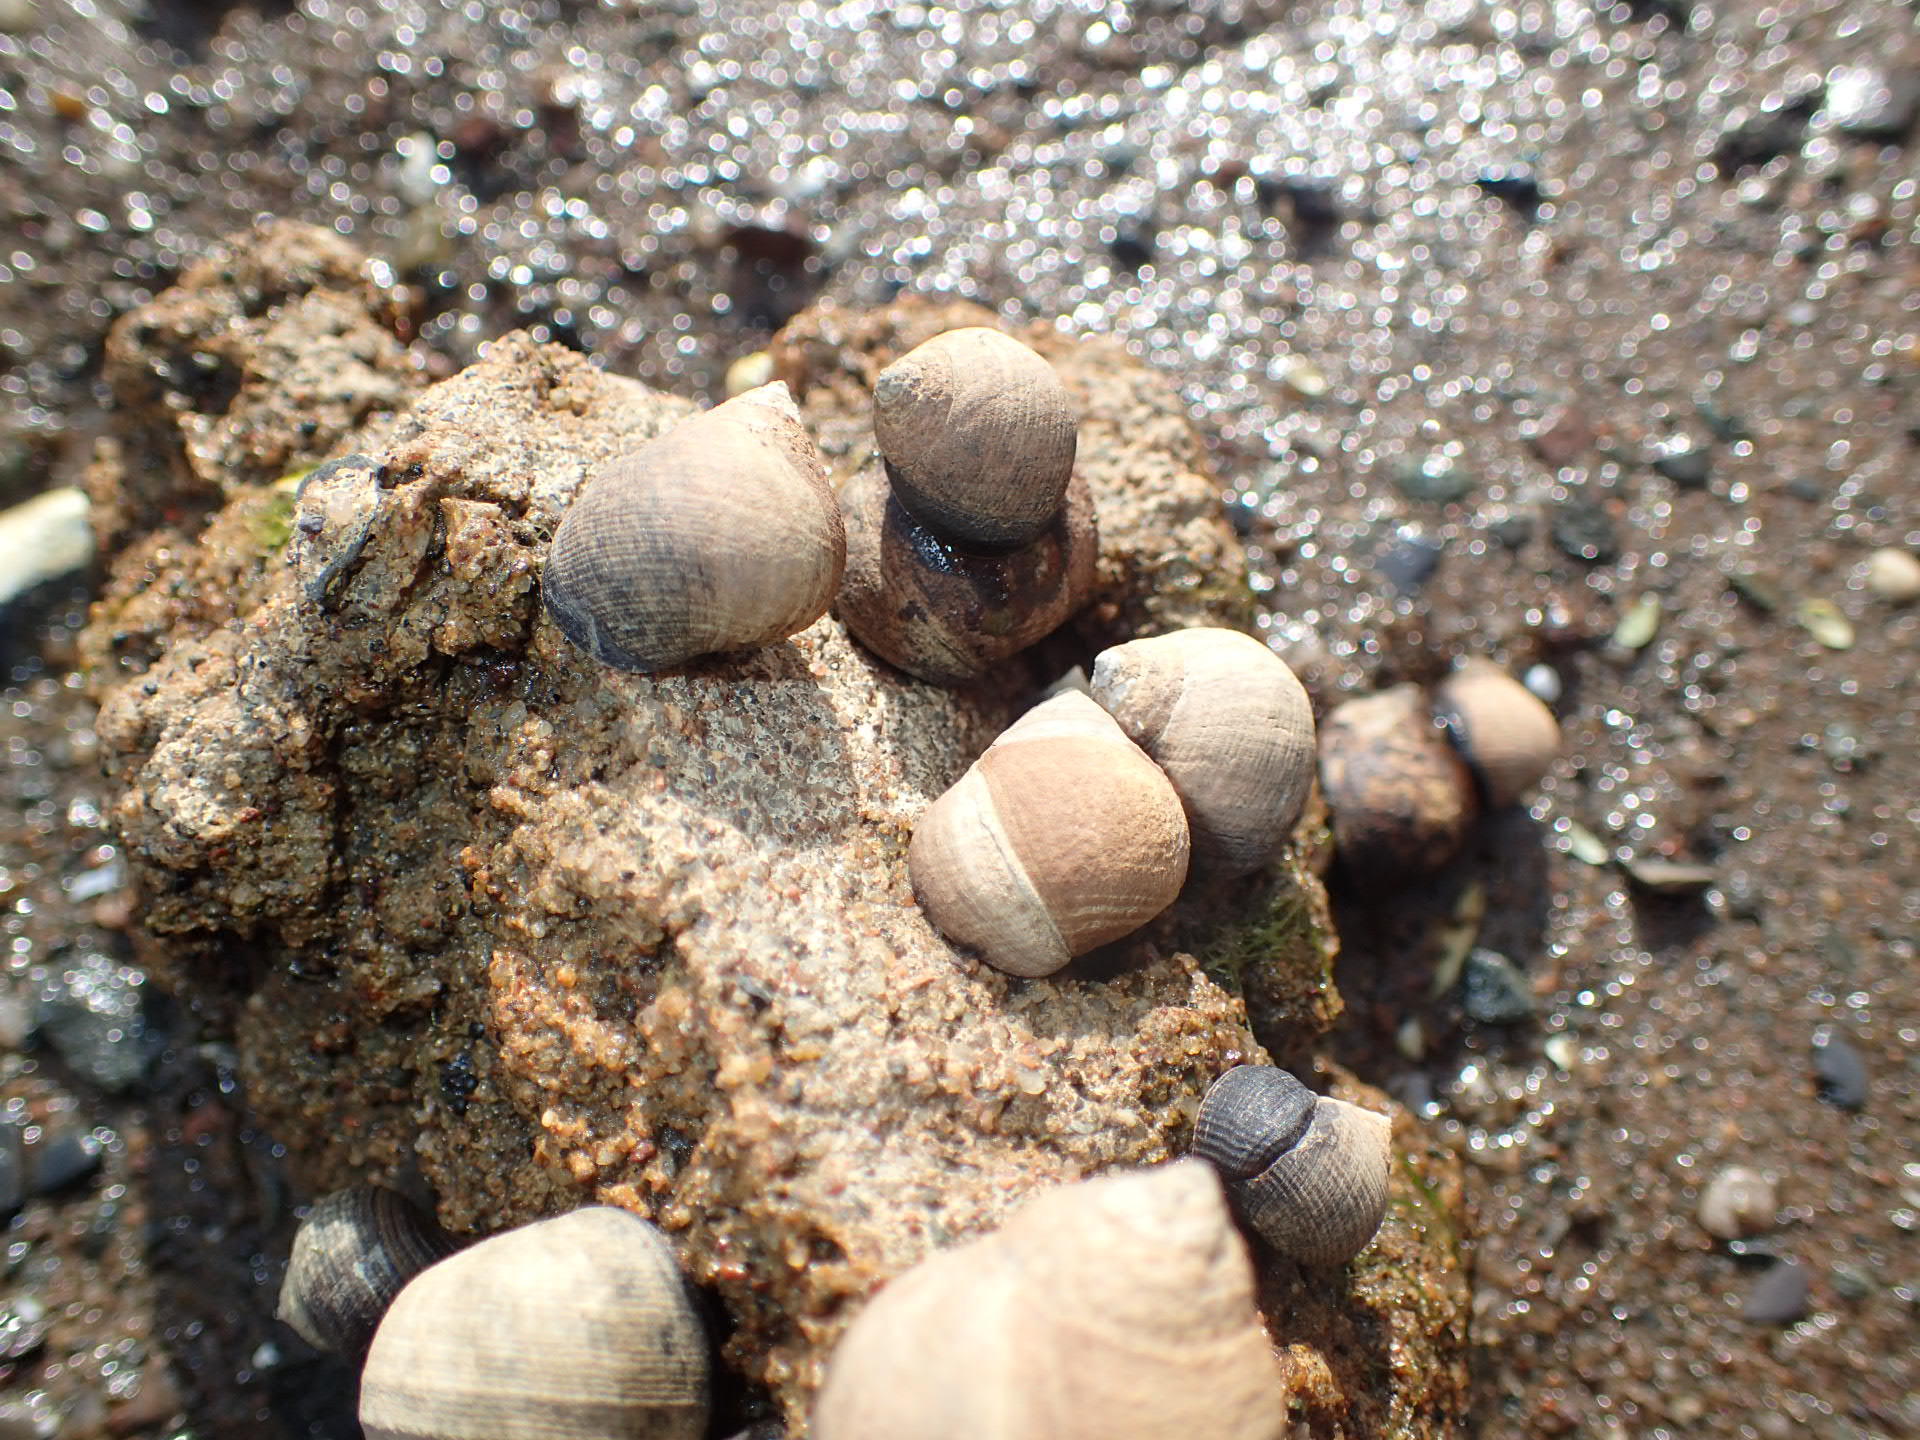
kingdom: Animalia
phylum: Mollusca
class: Gastropoda
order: Littorinimorpha
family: Littorinidae
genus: Littorina
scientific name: Littorina littorea
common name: Common periwinkle
